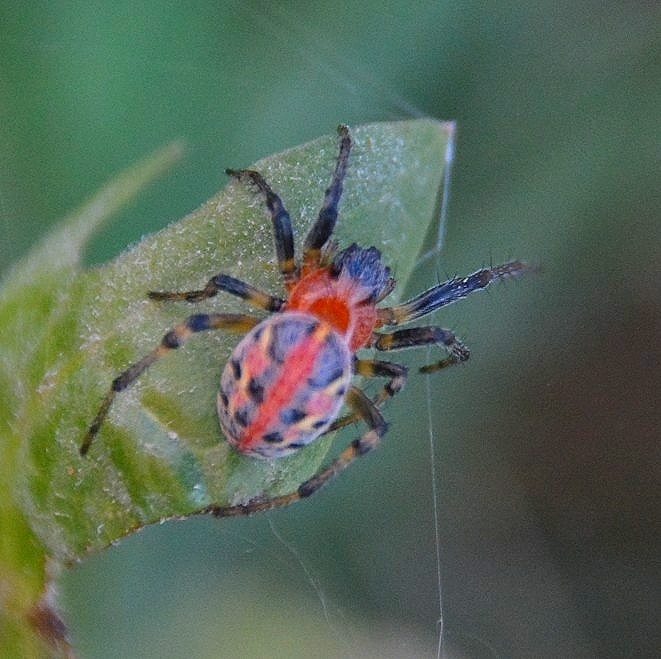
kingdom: Animalia
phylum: Arthropoda
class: Arachnida
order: Araneae
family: Araneidae
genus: Alpaida
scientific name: Alpaida versicolor
